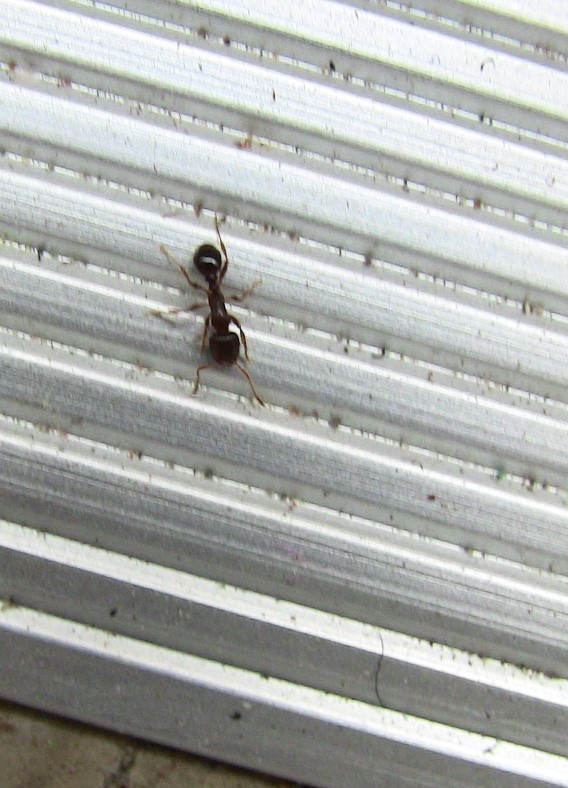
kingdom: Animalia
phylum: Arthropoda
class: Insecta
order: Hymenoptera
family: Formicidae
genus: Tetramorium
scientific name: Tetramorium immigrans
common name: Pavement ant
